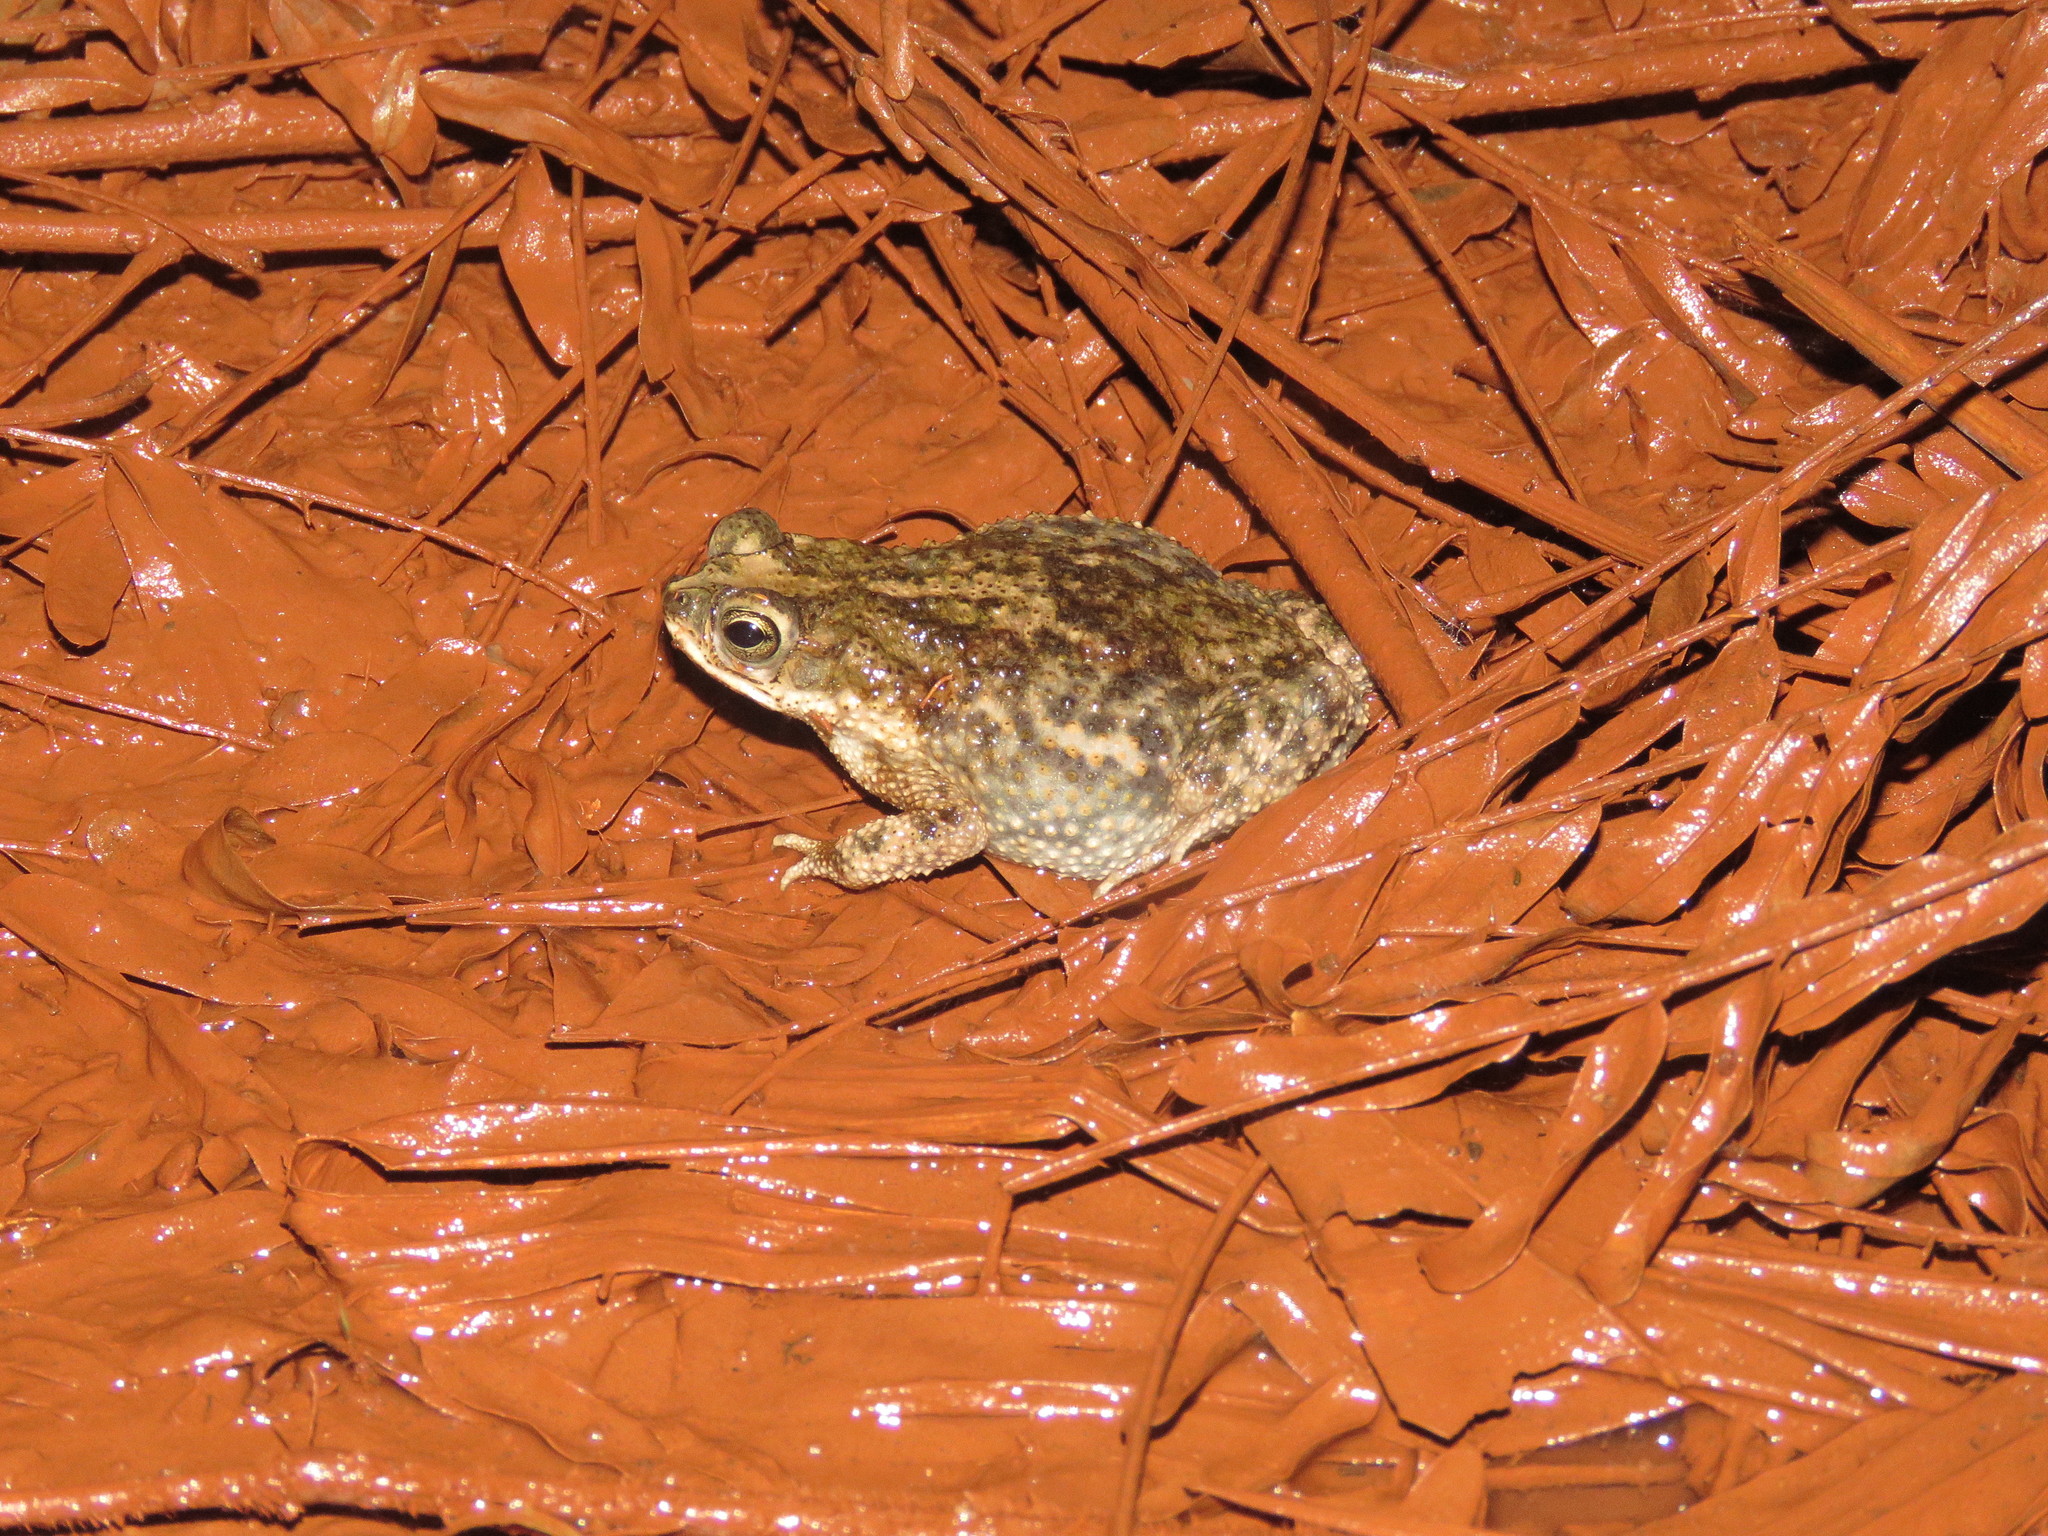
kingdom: Animalia
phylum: Chordata
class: Amphibia
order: Anura
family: Bufonidae
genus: Rhinella
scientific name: Rhinella major
